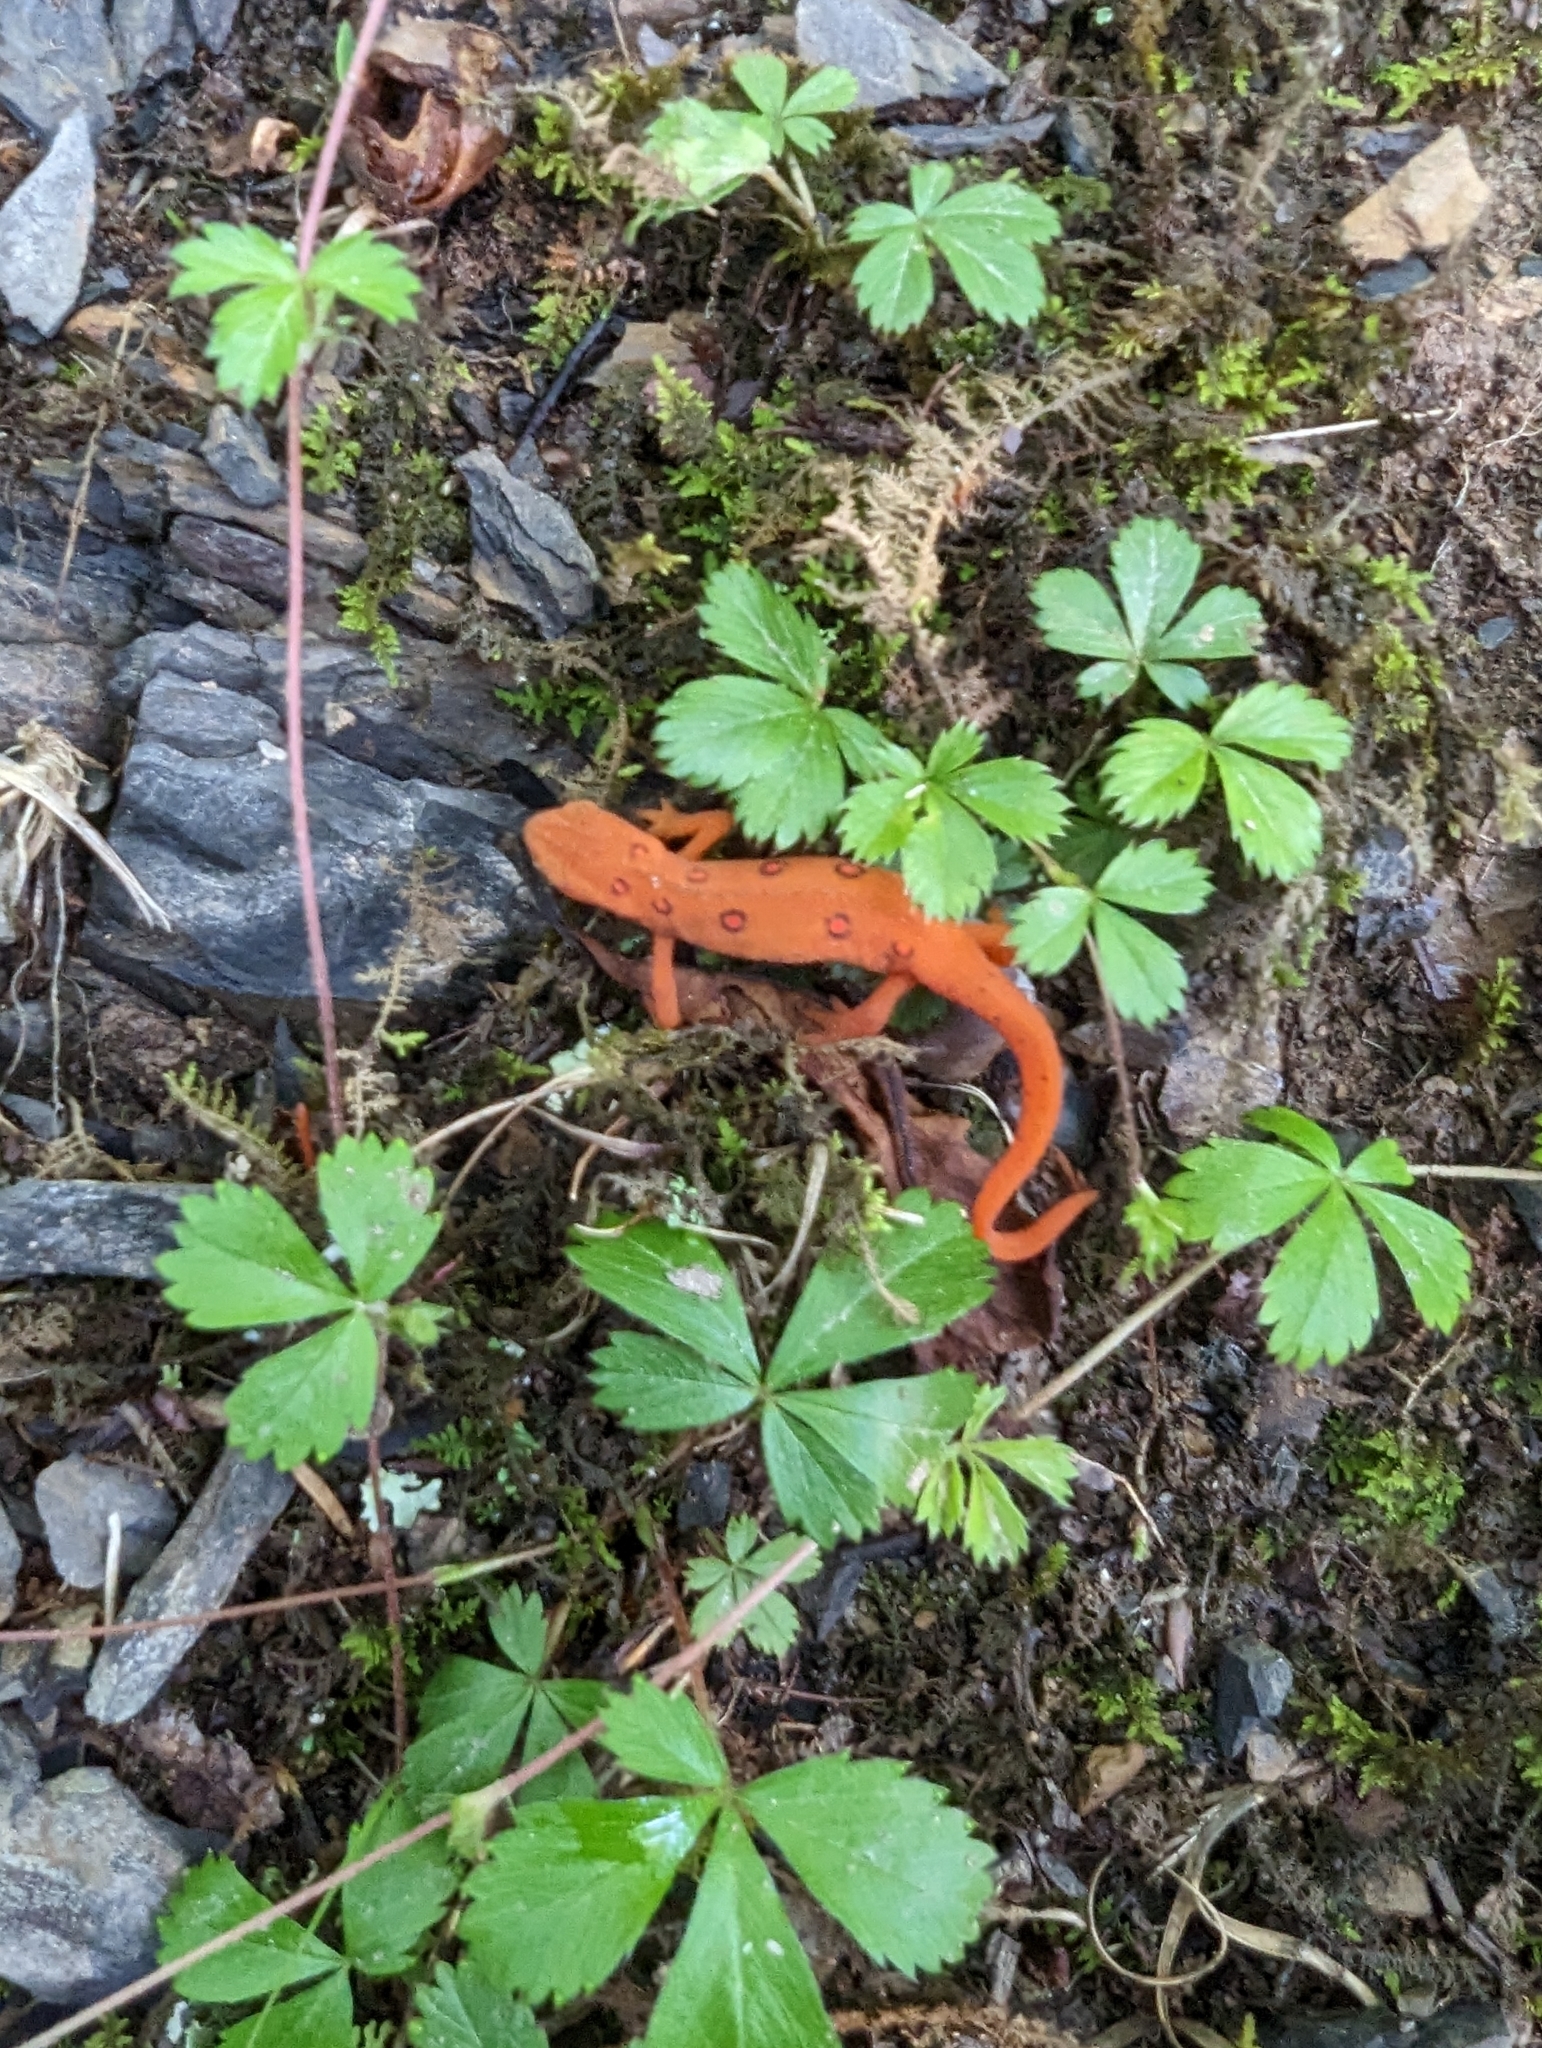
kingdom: Animalia
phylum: Chordata
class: Amphibia
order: Caudata
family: Salamandridae
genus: Notophthalmus
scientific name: Notophthalmus viridescens
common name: Eastern newt
